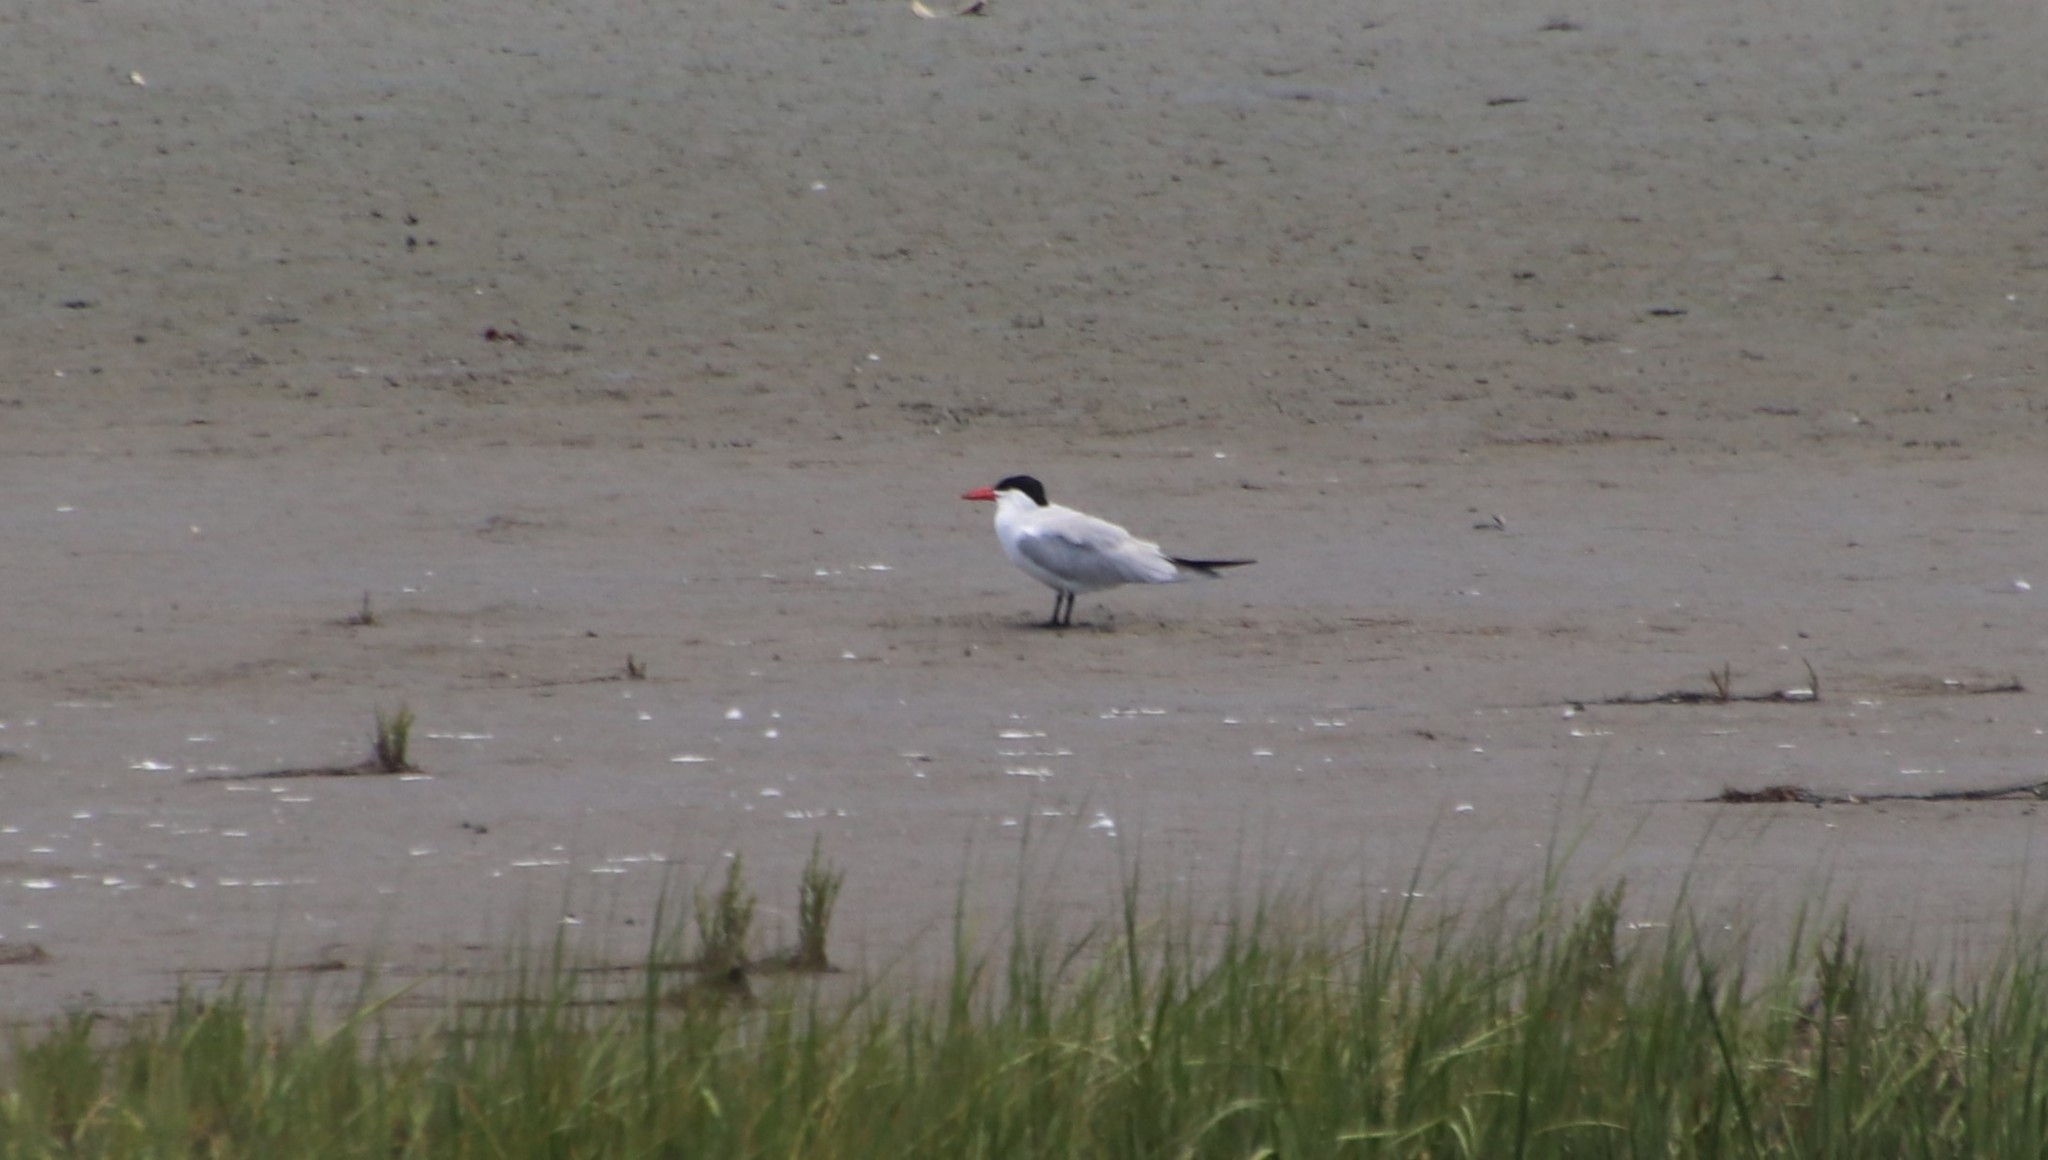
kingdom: Animalia
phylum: Chordata
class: Aves
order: Charadriiformes
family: Laridae
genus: Hydroprogne
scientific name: Hydroprogne caspia
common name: Caspian tern
